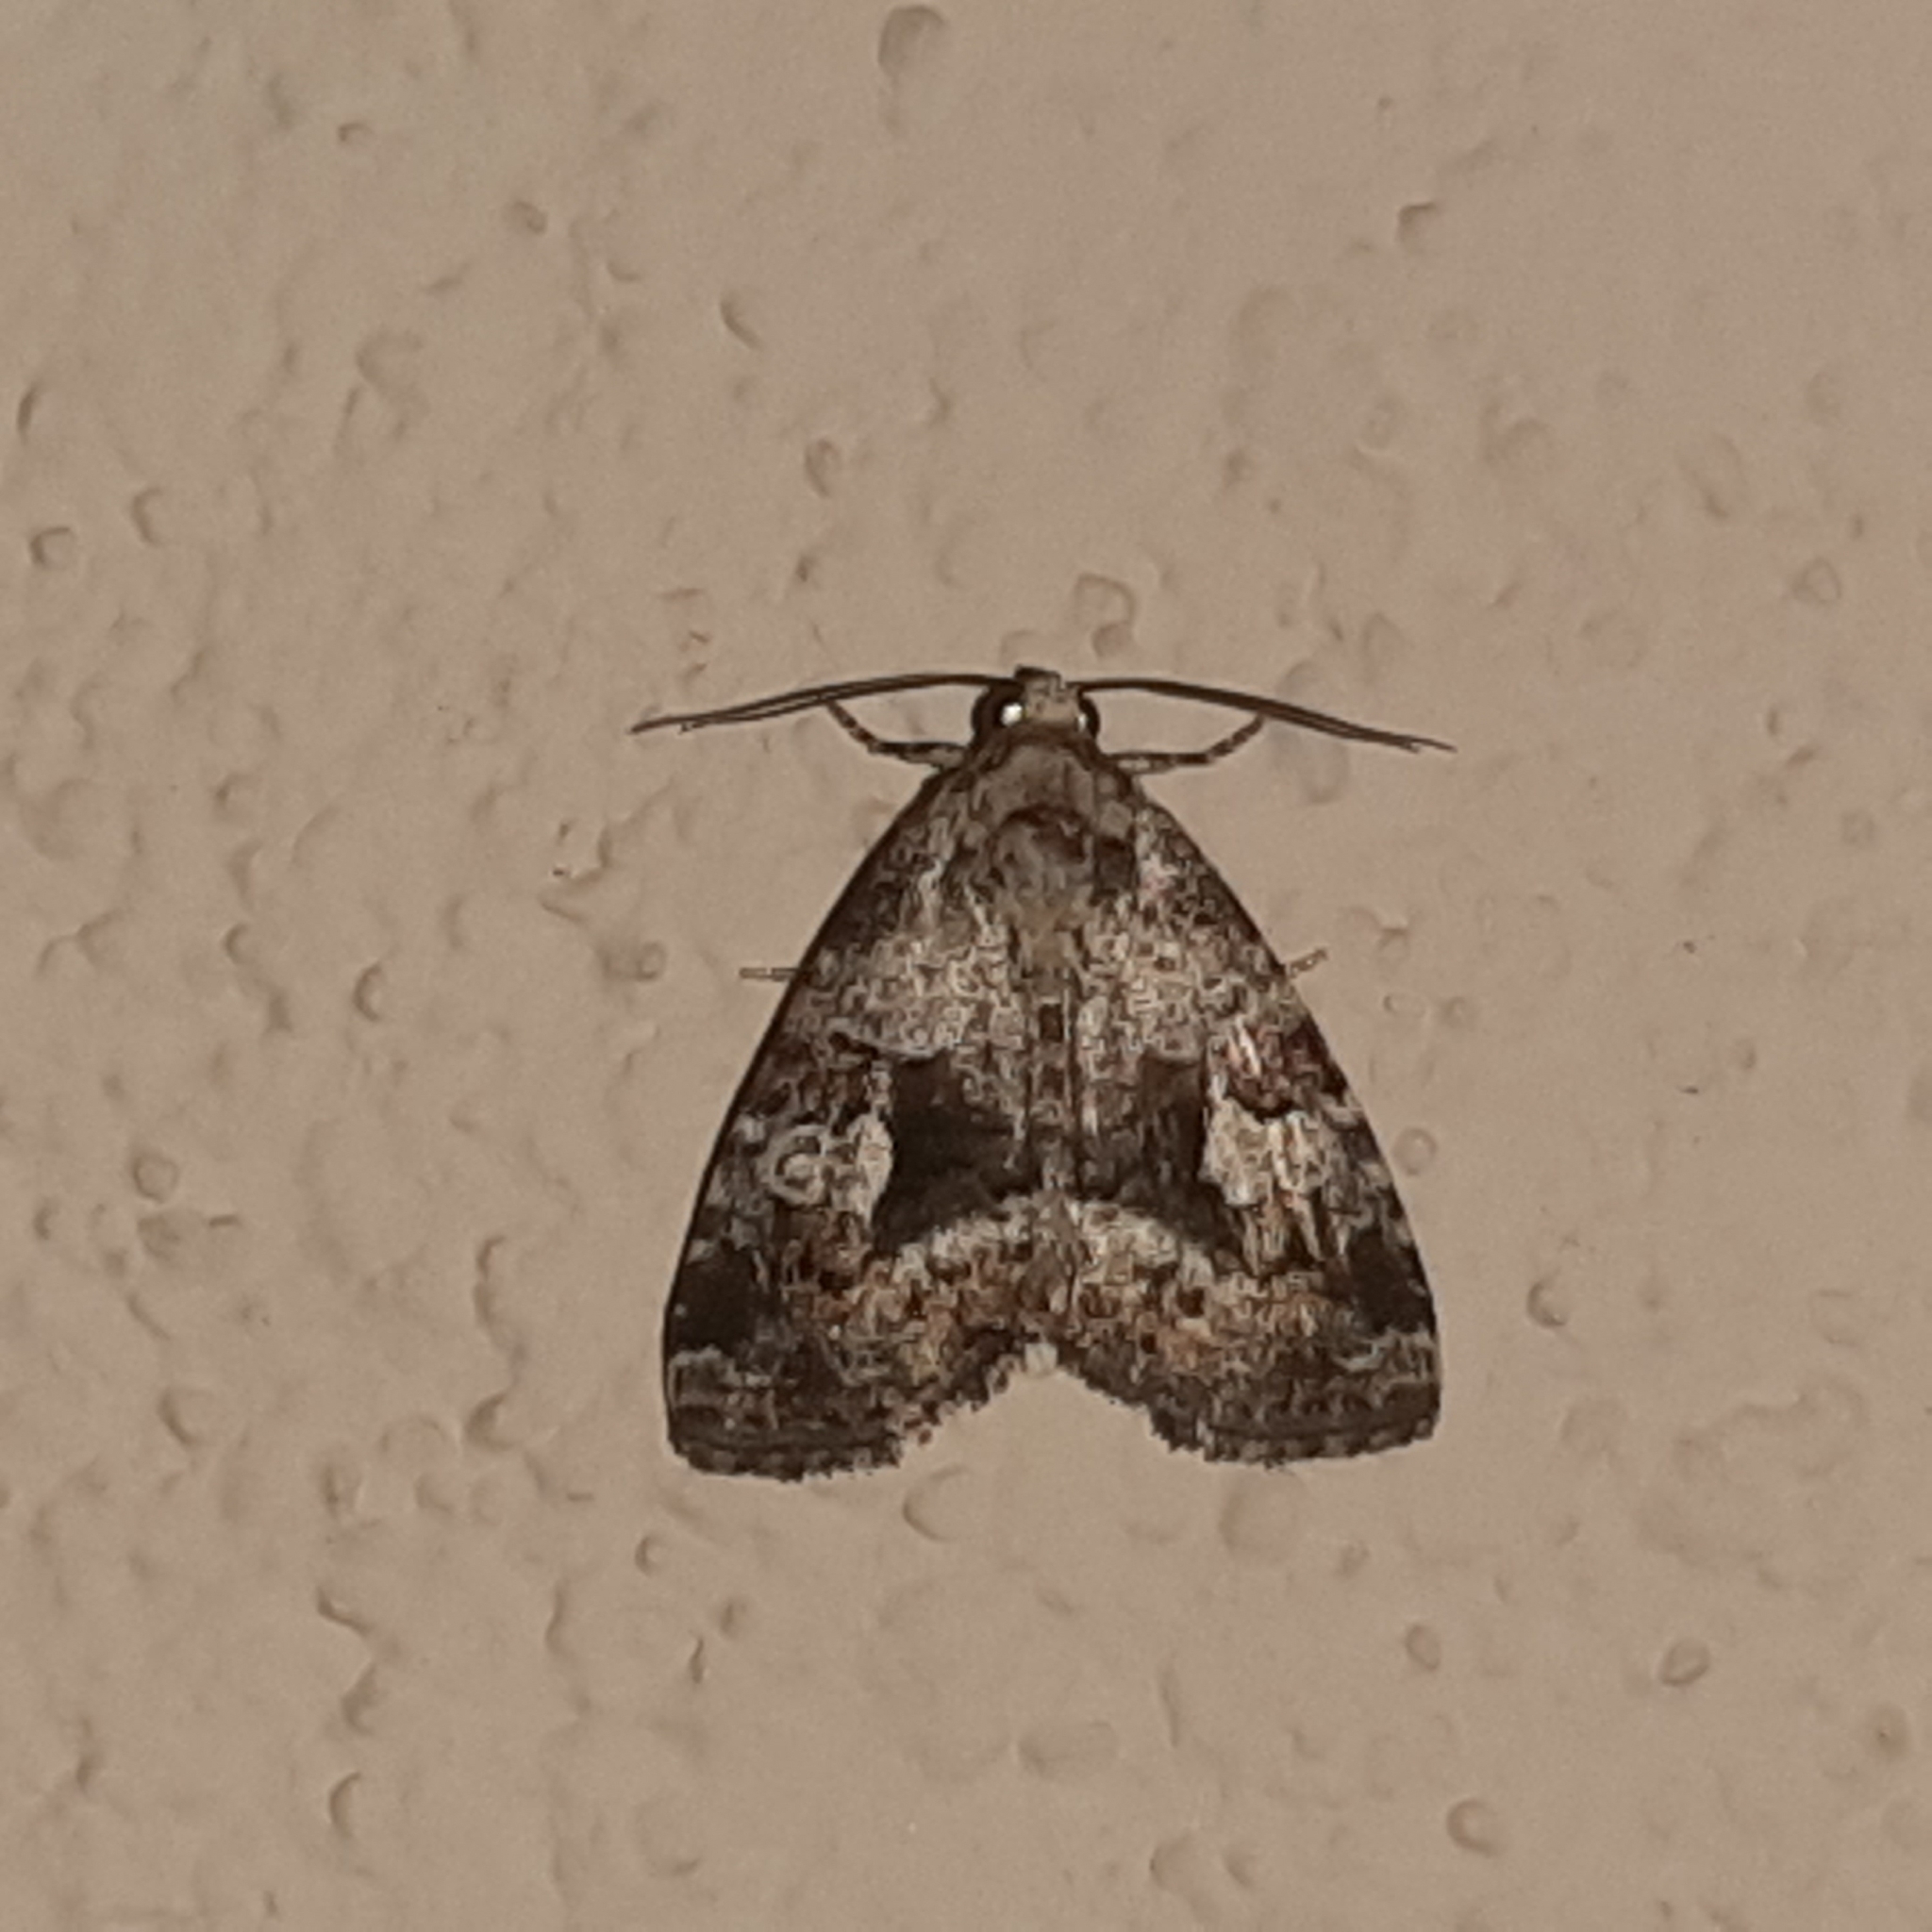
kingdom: Animalia
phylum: Arthropoda
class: Insecta
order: Lepidoptera
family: Noctuidae
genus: Mictochroa
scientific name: Mictochroa zonella
